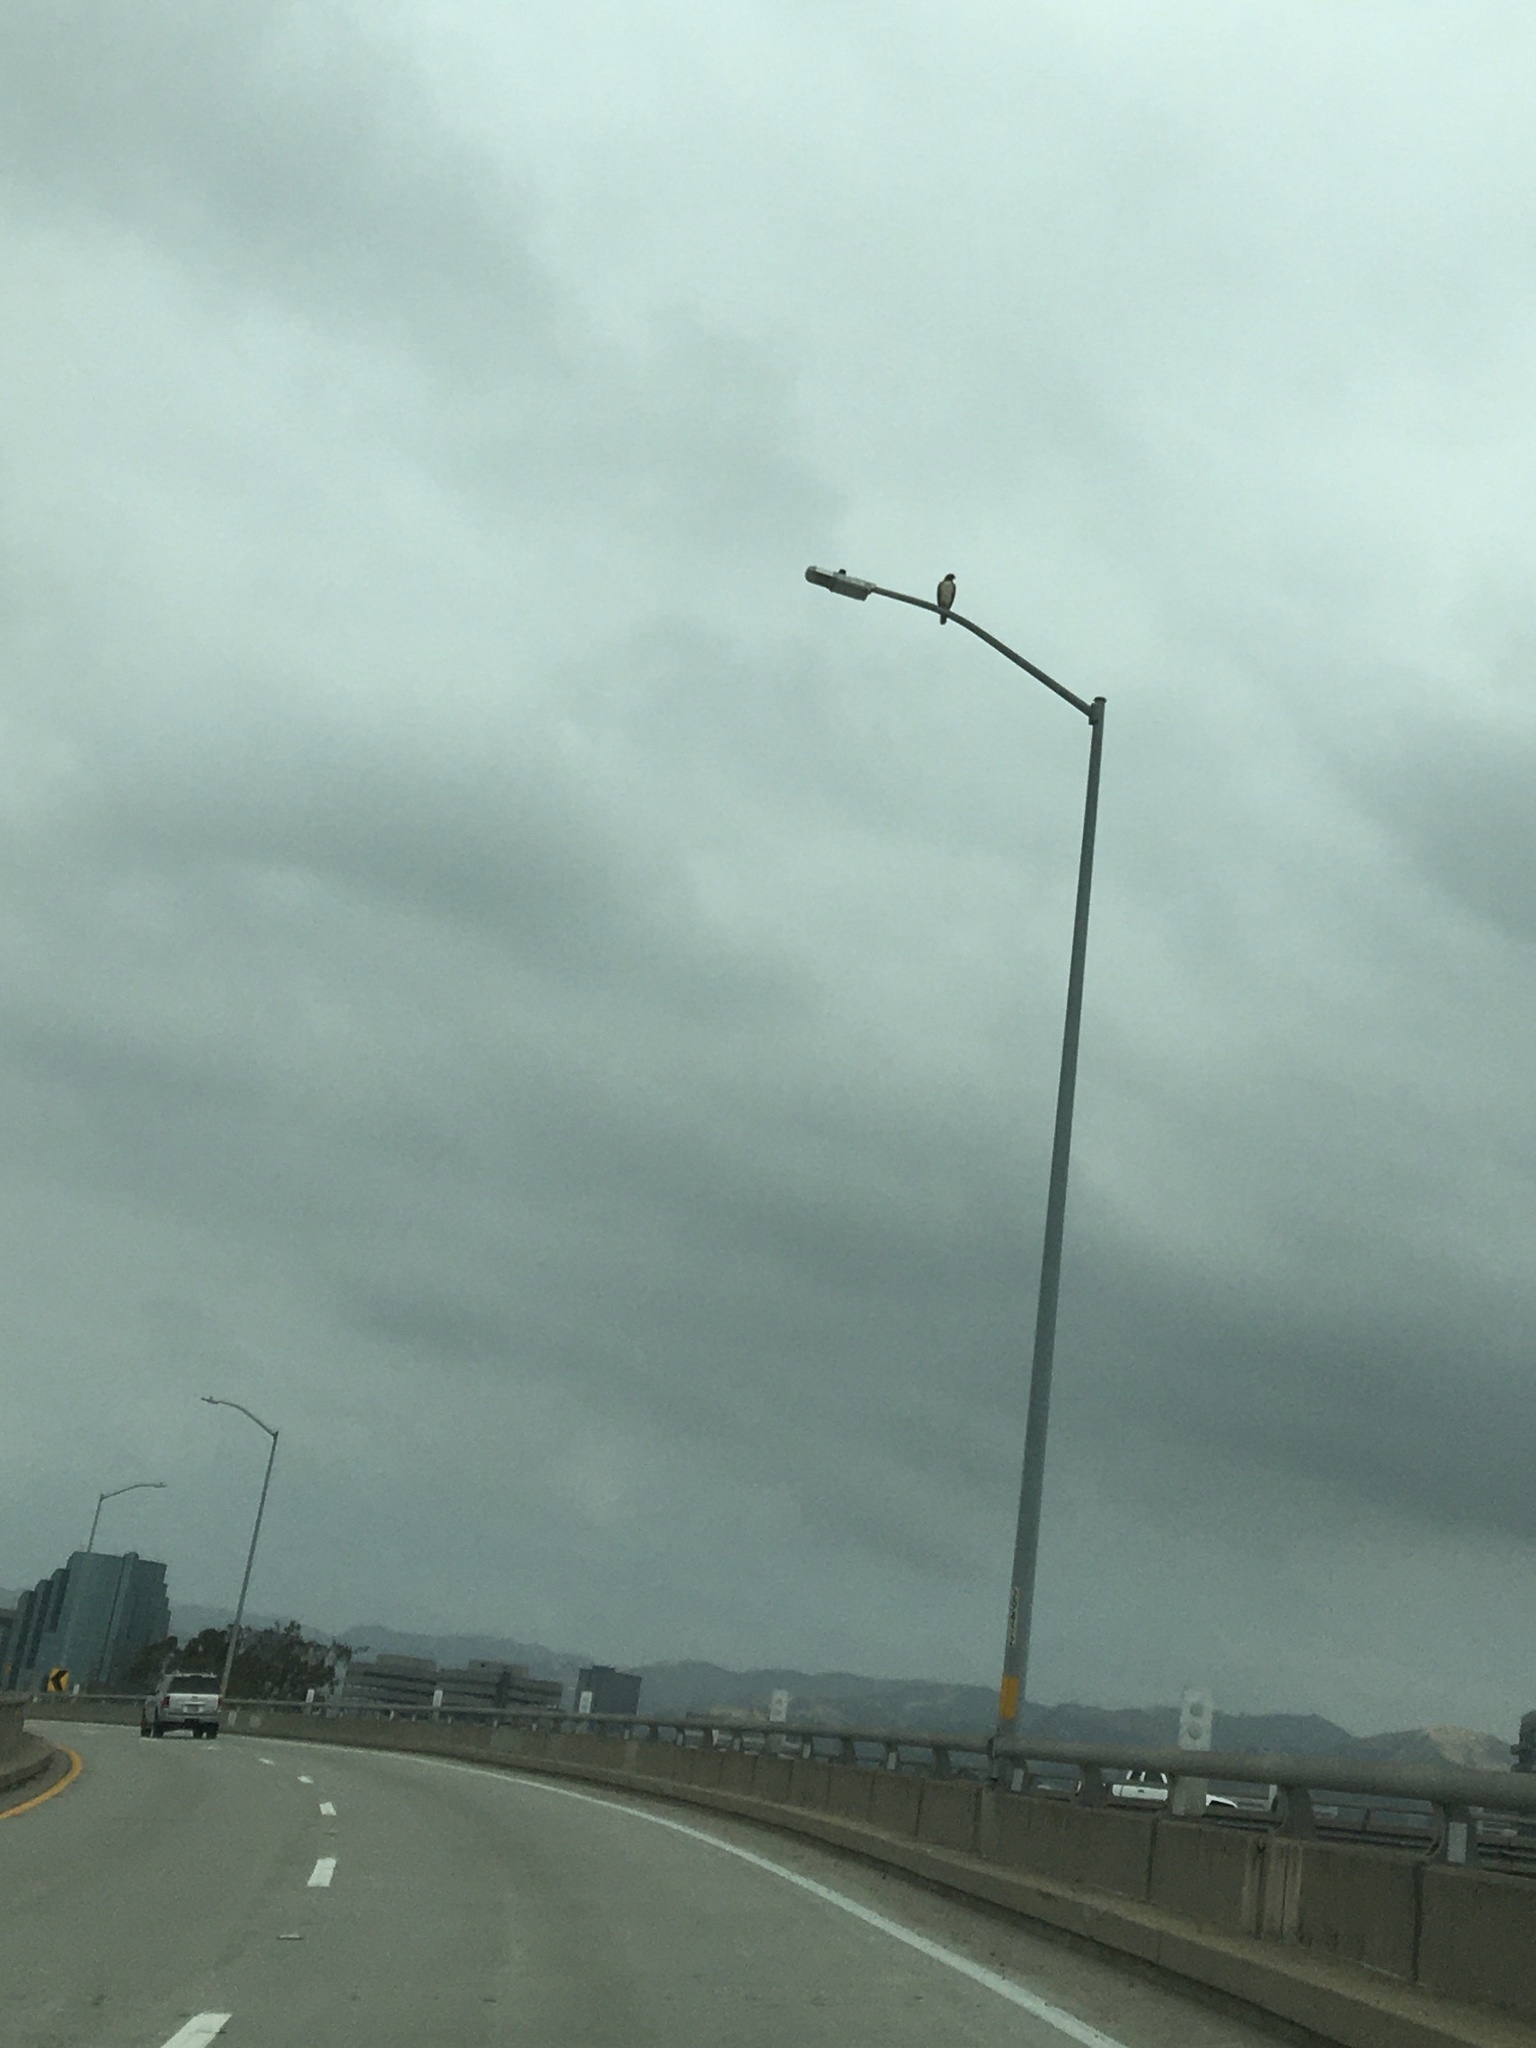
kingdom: Animalia
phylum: Chordata
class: Aves
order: Accipitriformes
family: Accipitridae
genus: Buteo
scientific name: Buteo jamaicensis
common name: Red-tailed hawk
